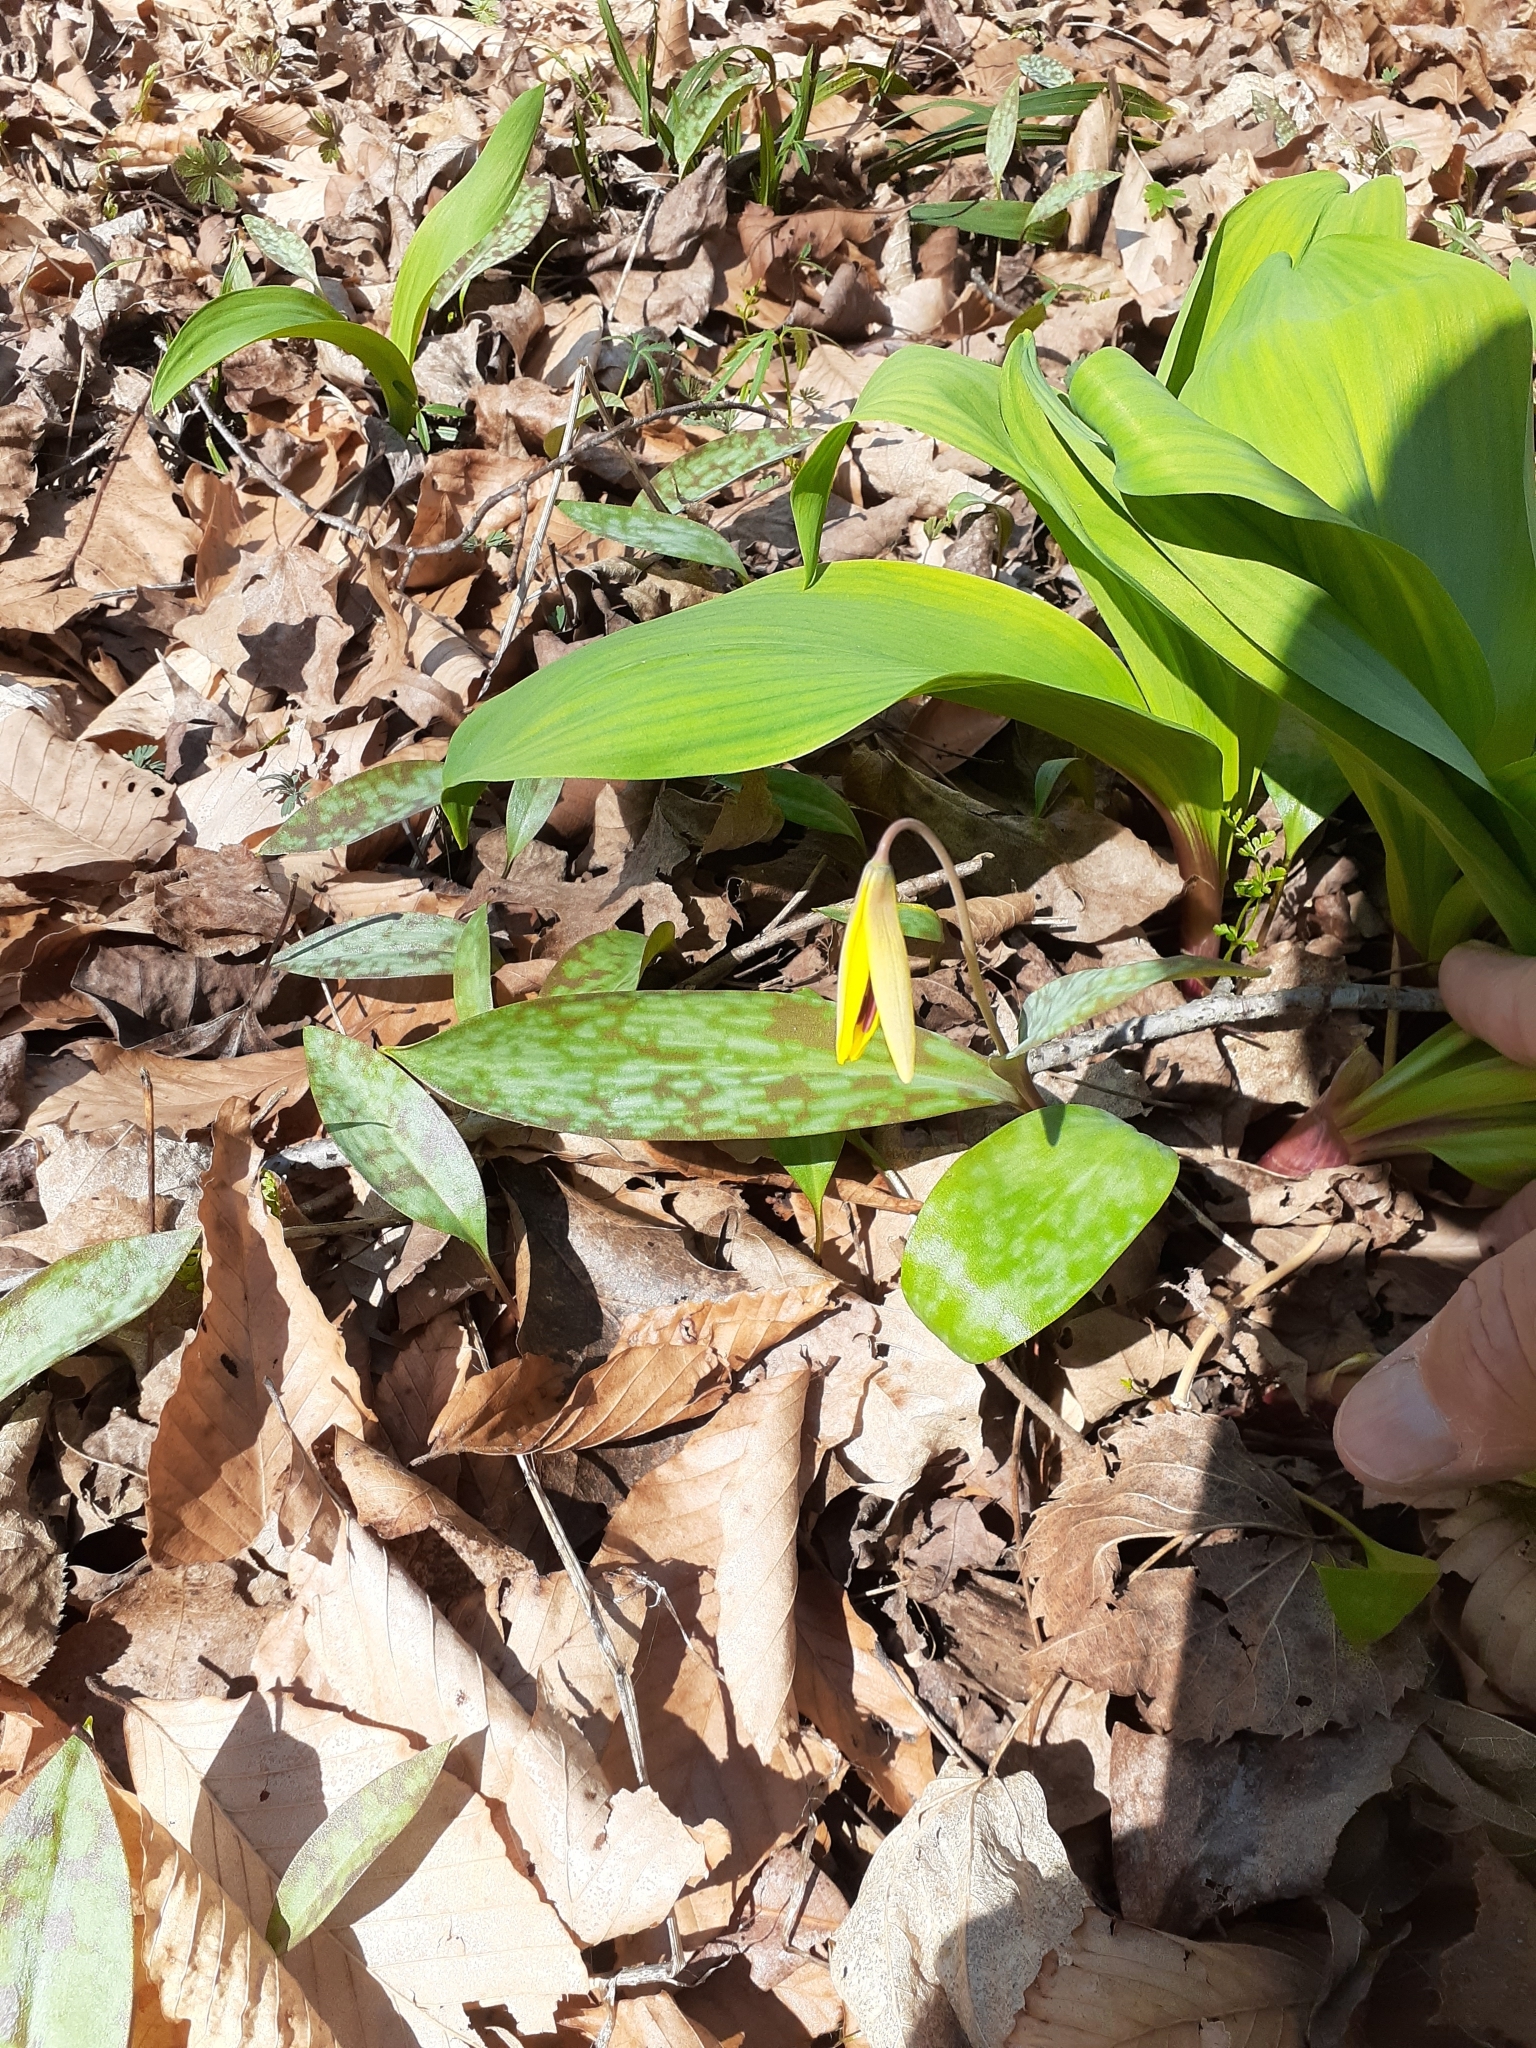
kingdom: Plantae
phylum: Tracheophyta
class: Liliopsida
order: Liliales
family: Liliaceae
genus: Erythronium
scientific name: Erythronium americanum
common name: Yellow adder's-tongue
